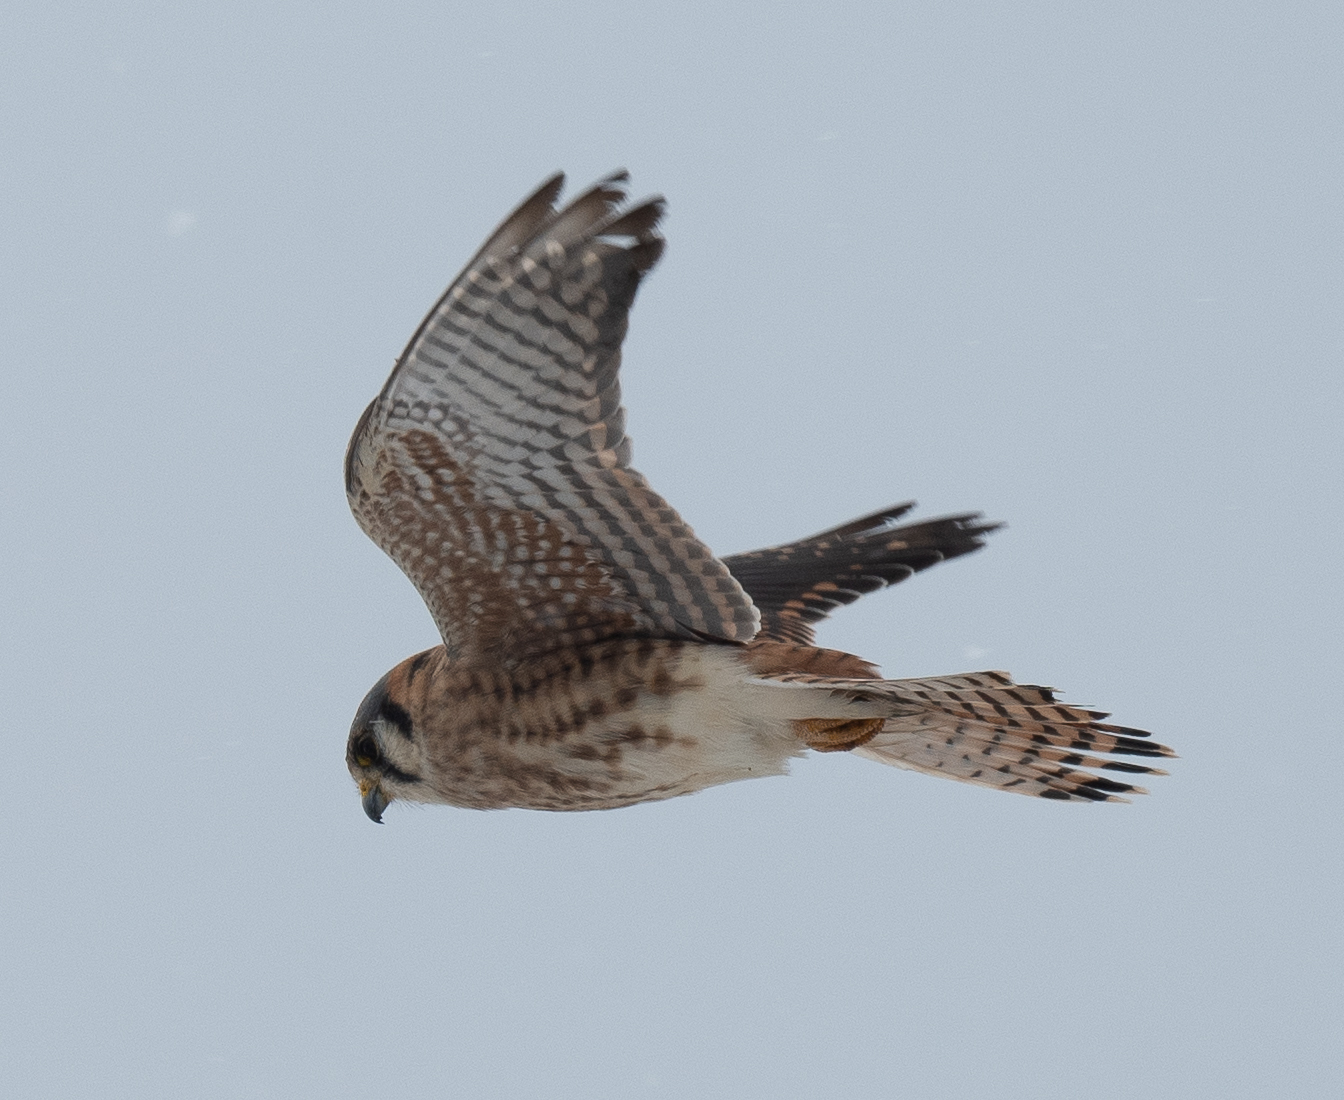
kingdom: Animalia
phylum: Chordata
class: Aves
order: Falconiformes
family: Falconidae
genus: Falco
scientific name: Falco sparverius
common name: American kestrel
